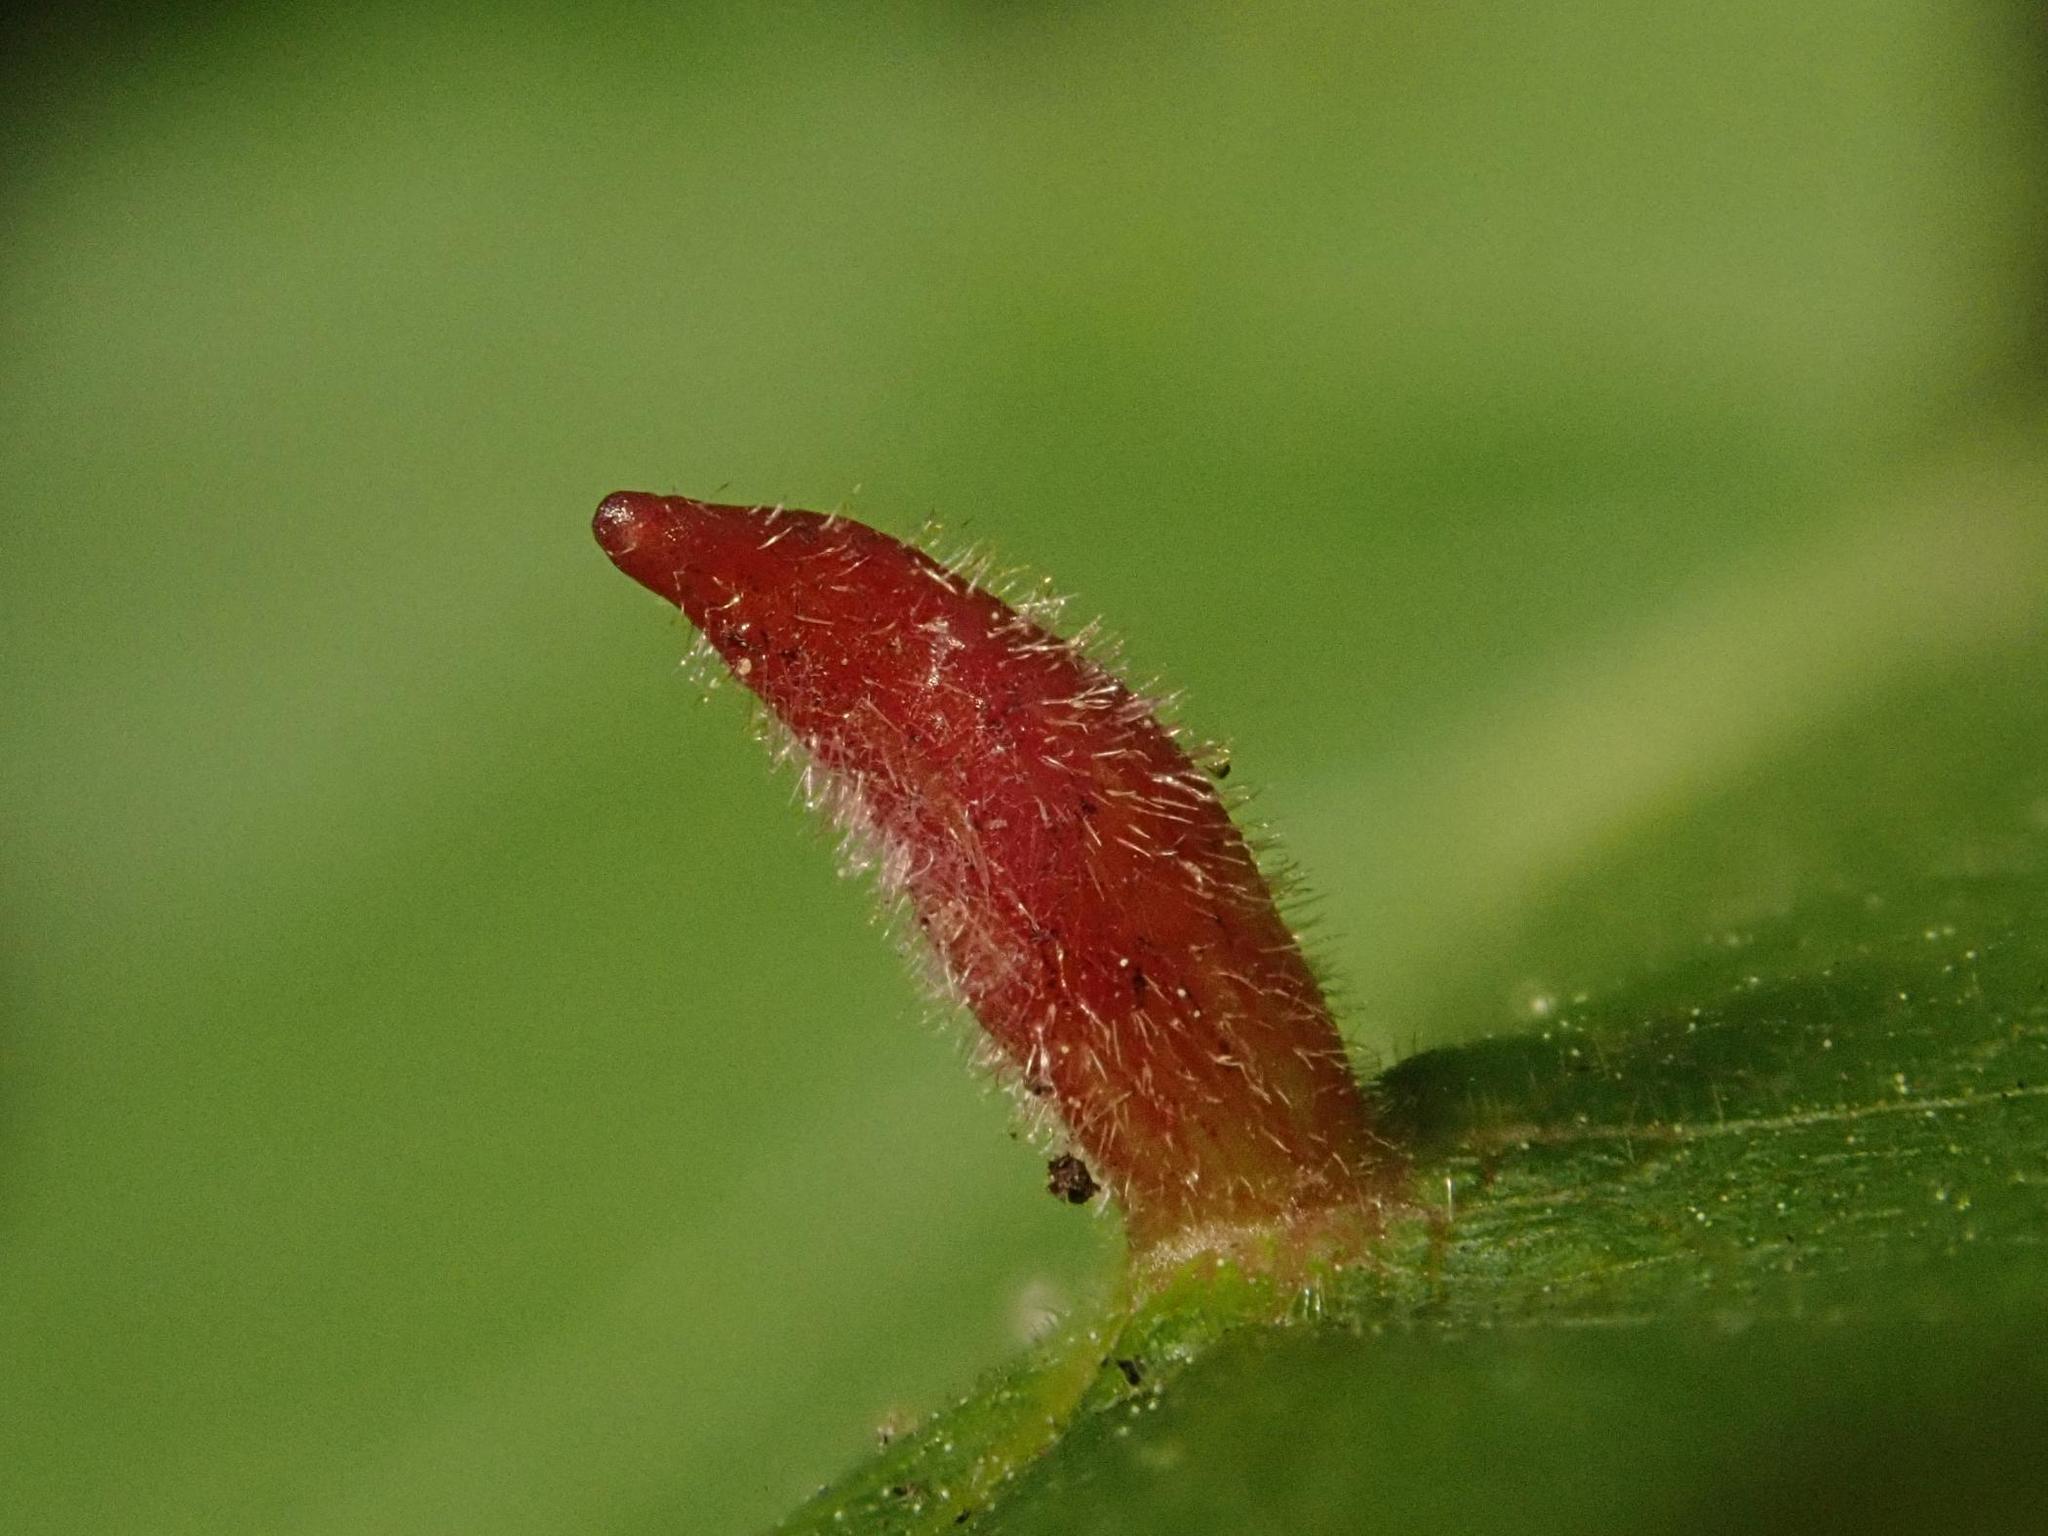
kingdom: Animalia
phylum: Arthropoda
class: Arachnida
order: Trombidiformes
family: Eriophyidae
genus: Eriophyes
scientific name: Eriophyes tiliae
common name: Red nail gall mite
